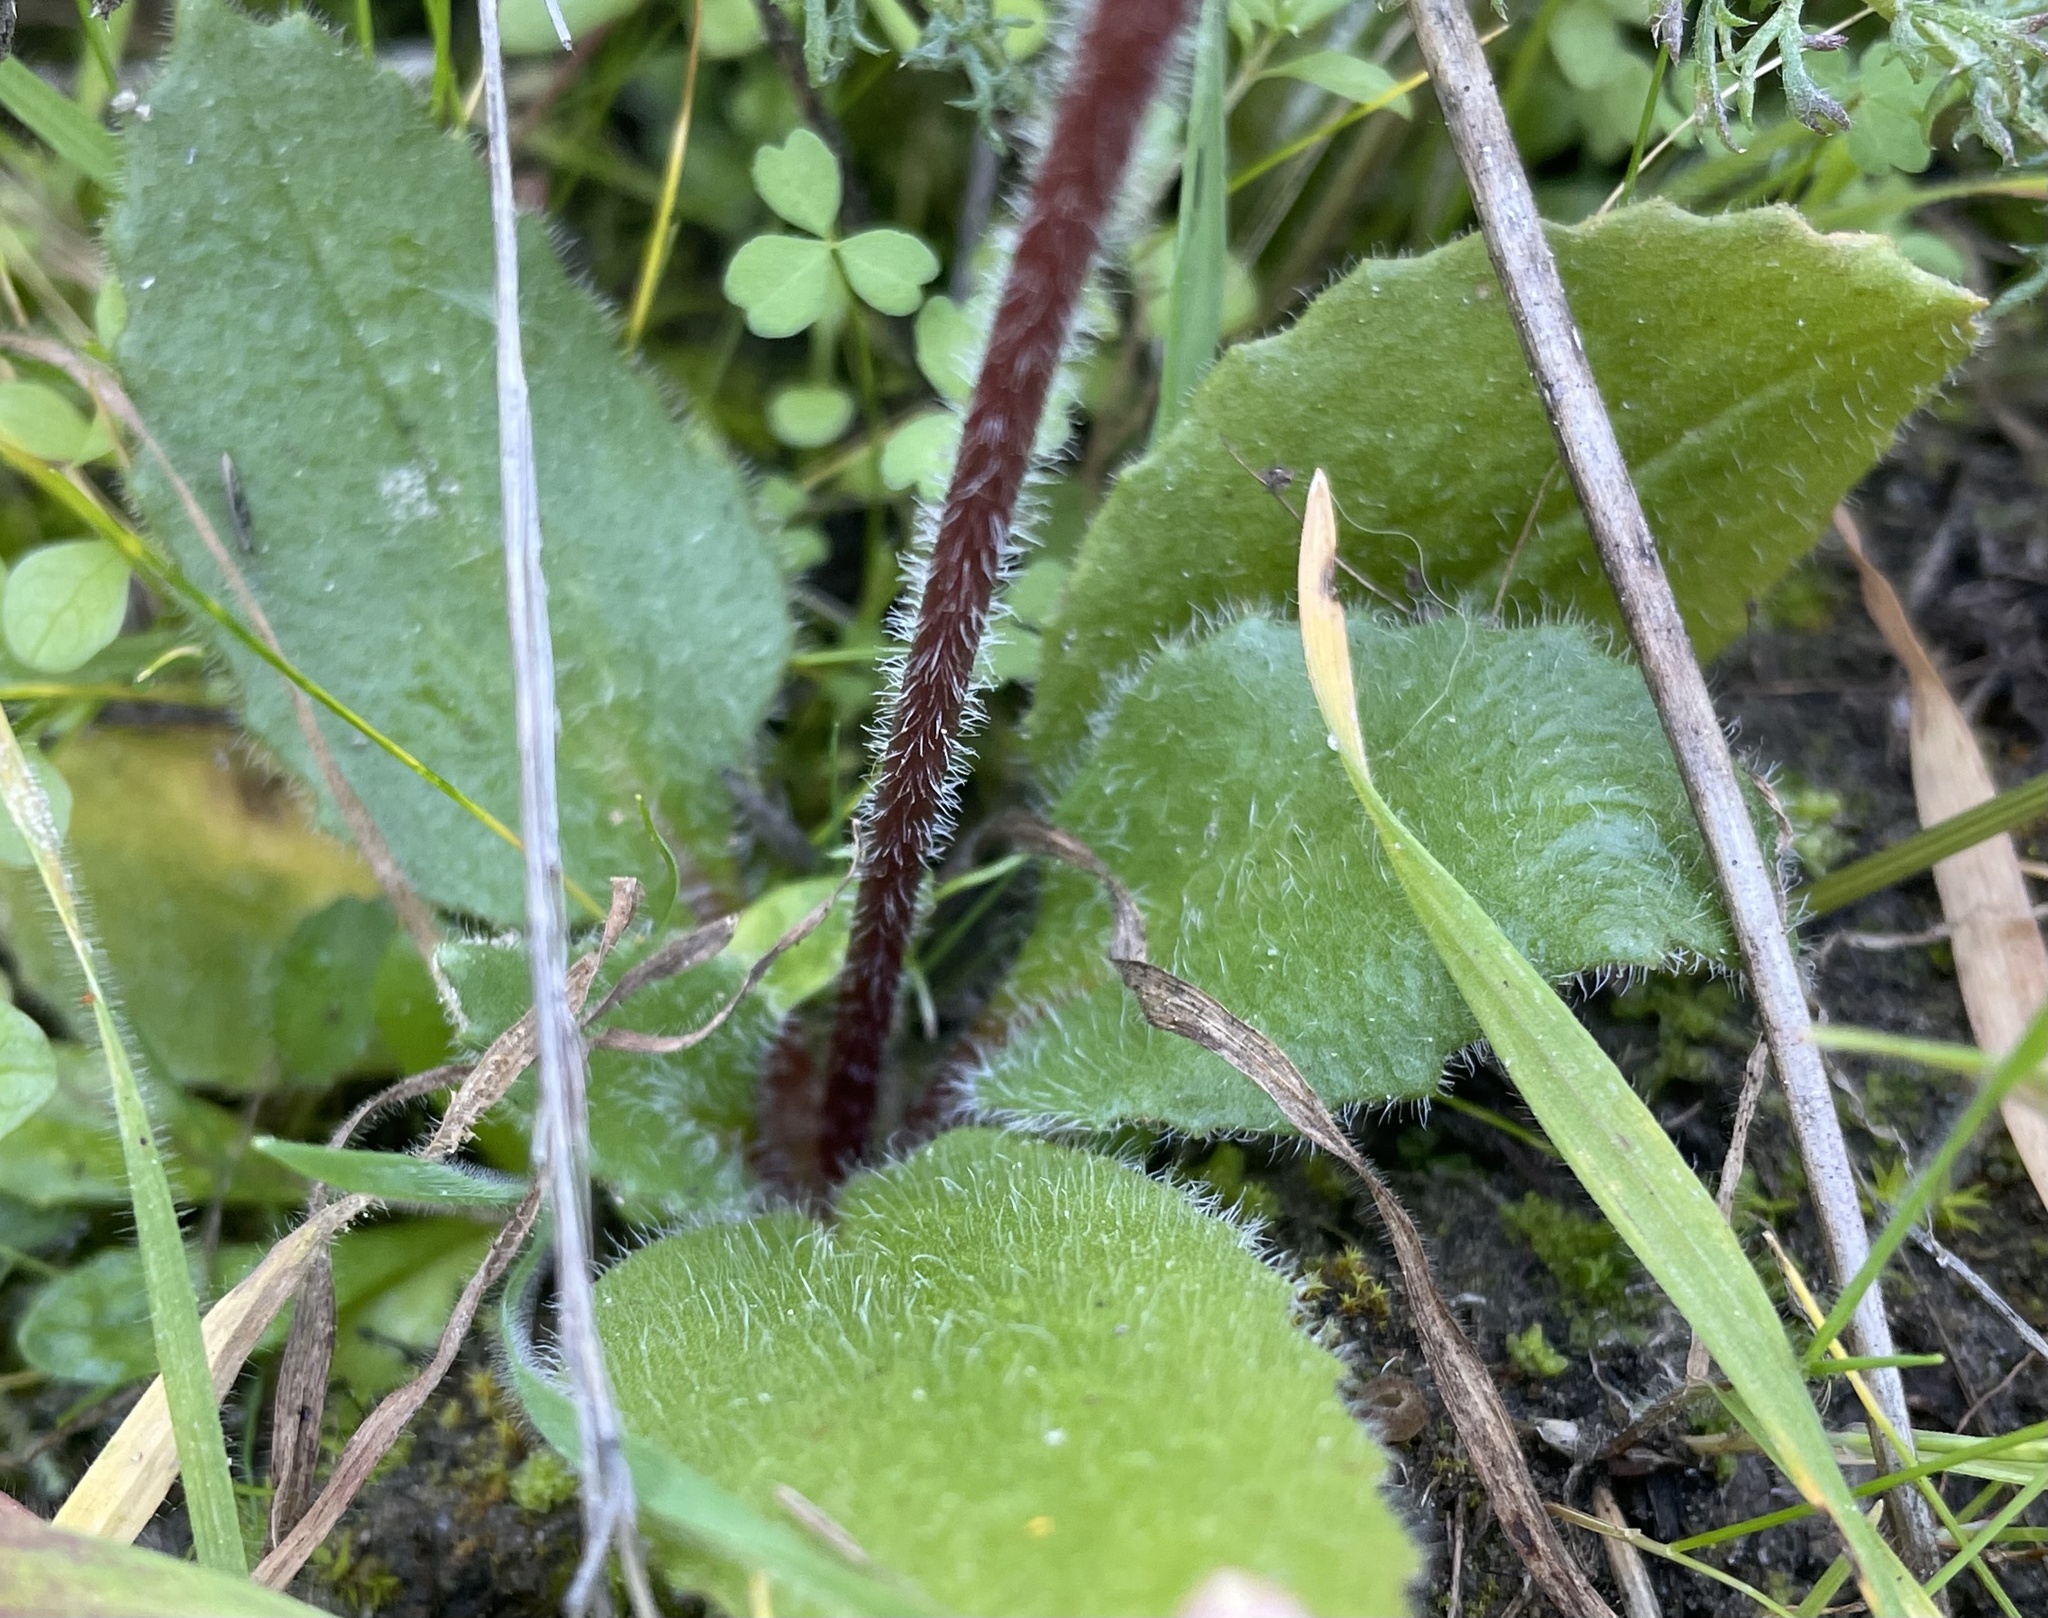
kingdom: Plantae
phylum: Tracheophyta
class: Magnoliopsida
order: Saxifragales
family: Saxifragaceae
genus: Micranthes
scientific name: Micranthes californica
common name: California saxifrage
